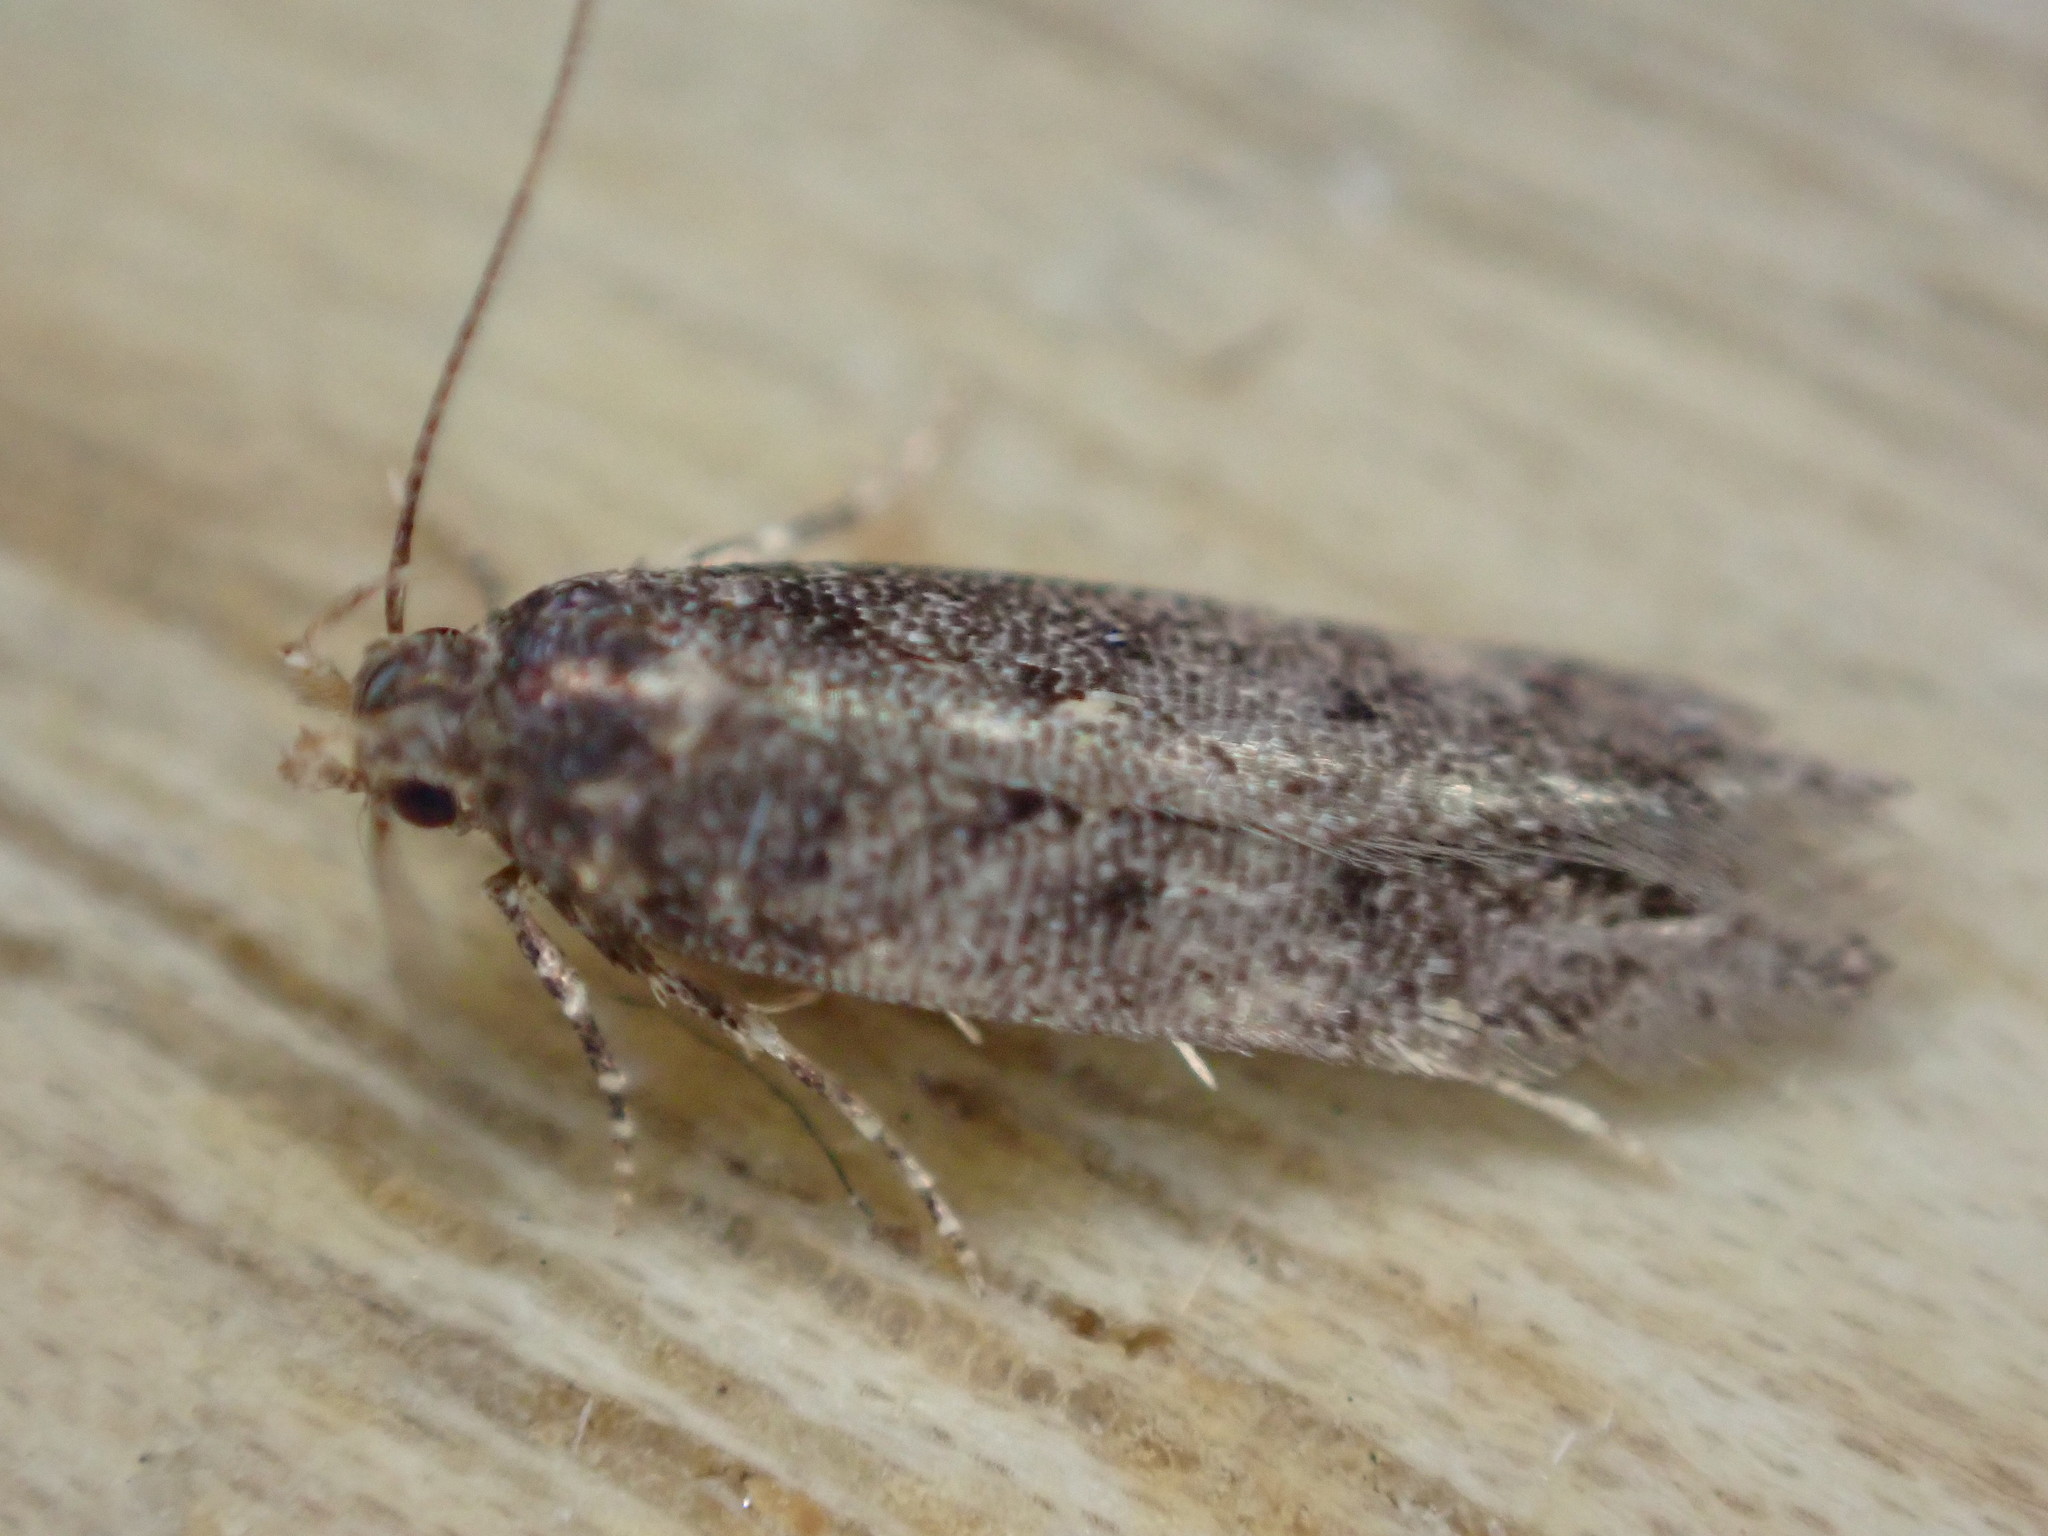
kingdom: Animalia
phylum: Arthropoda
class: Insecta
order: Lepidoptera
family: Gelechiidae
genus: Bryotropha
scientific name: Bryotropha affinis
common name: Dark groundling
